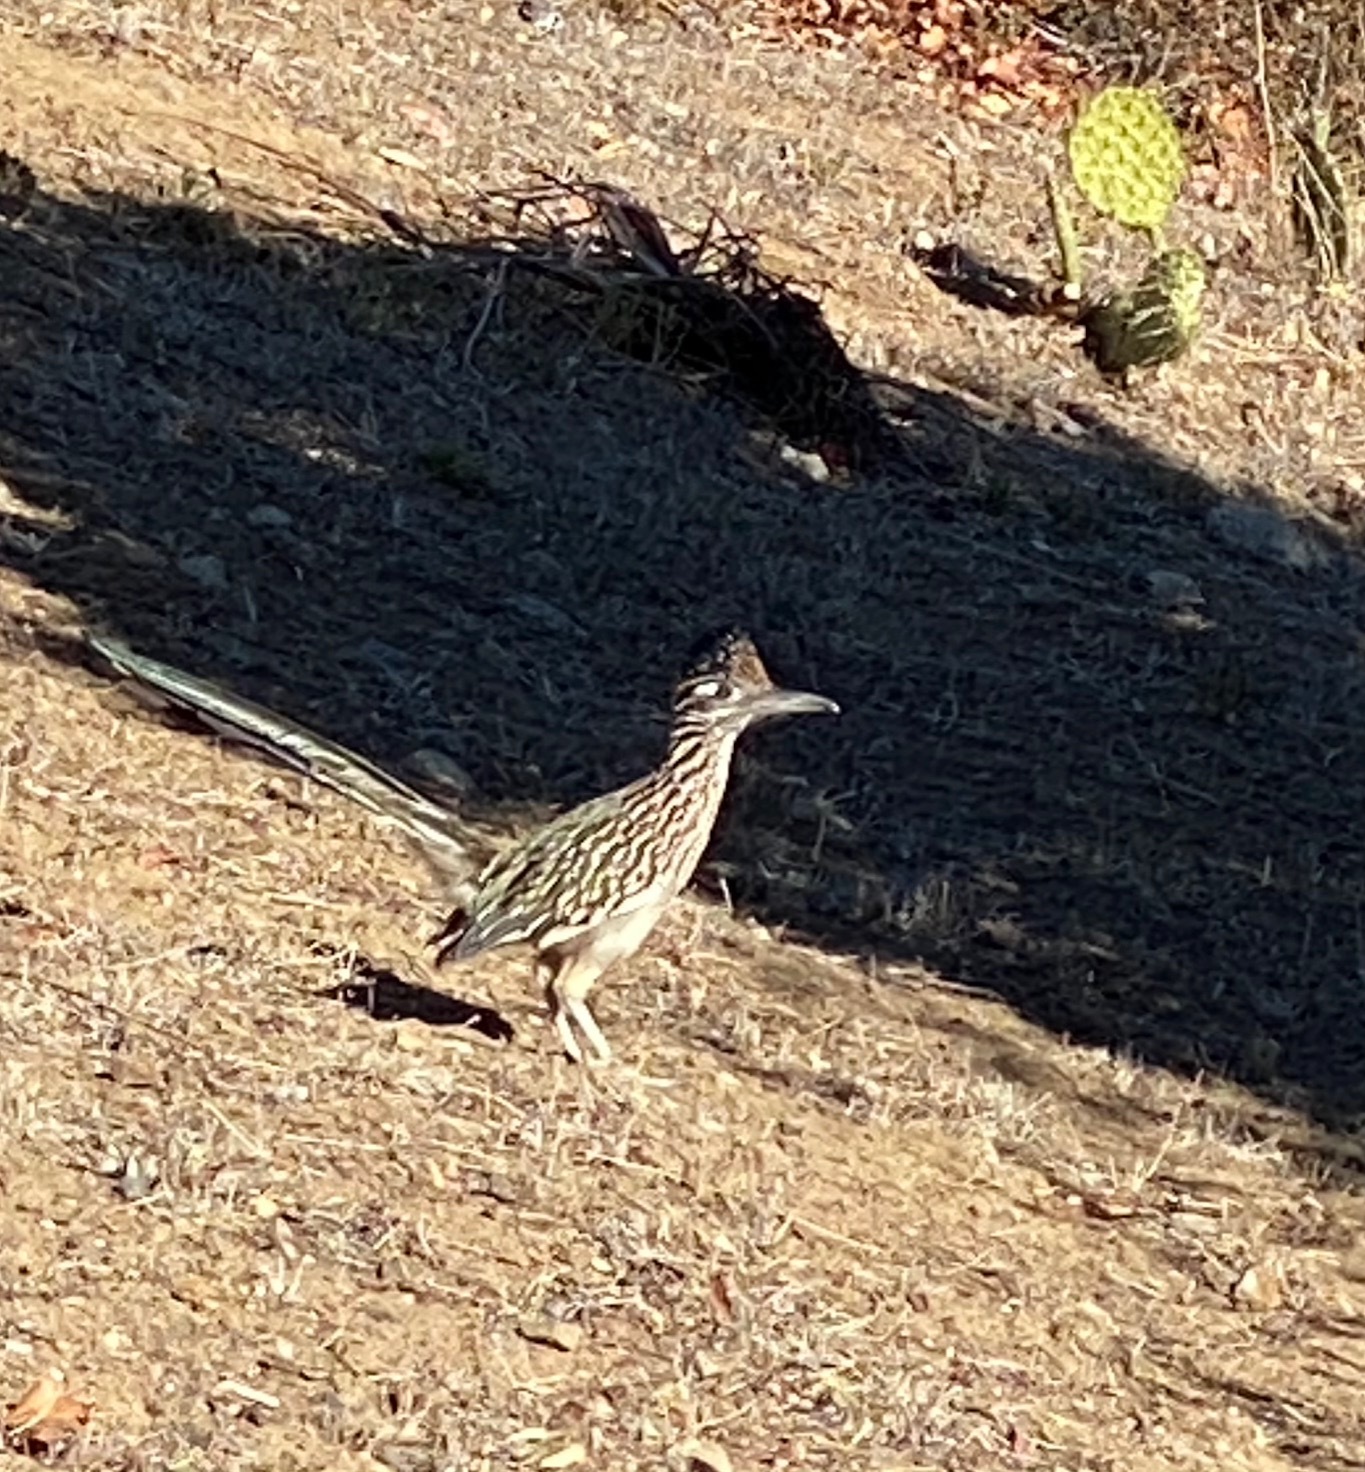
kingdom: Animalia
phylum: Chordata
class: Aves
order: Cuculiformes
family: Cuculidae
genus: Geococcyx
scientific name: Geococcyx californianus
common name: Greater roadrunner
